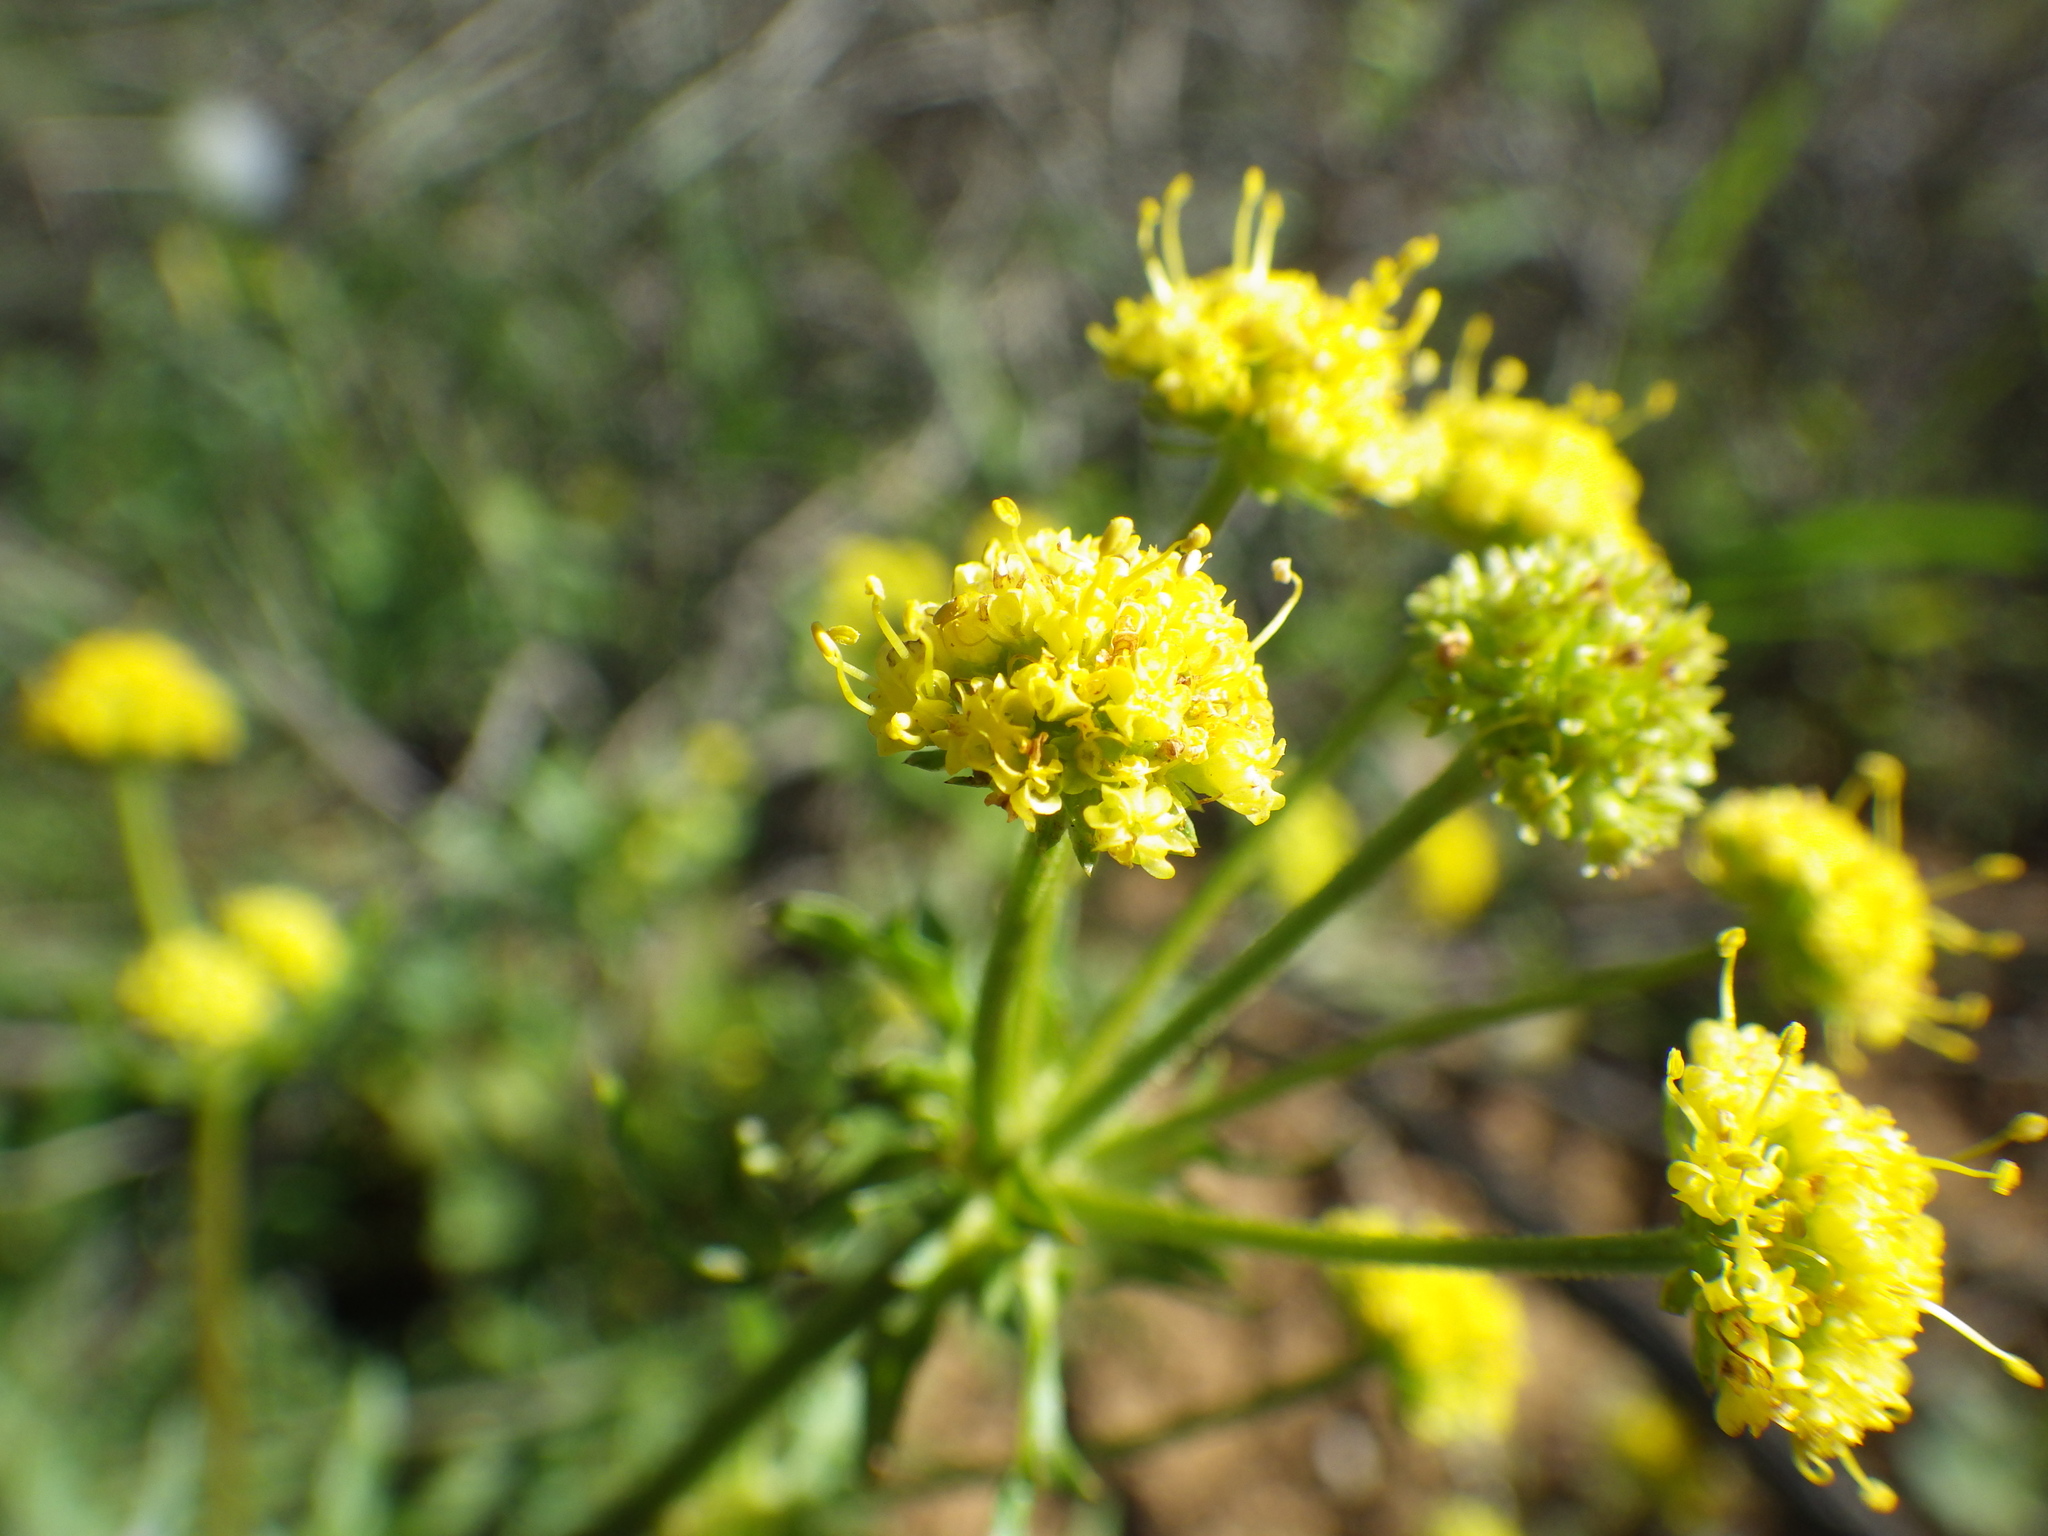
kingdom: Plantae
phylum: Tracheophyta
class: Magnoliopsida
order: Apiales
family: Apiaceae
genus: Sanicula
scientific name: Sanicula arguta
